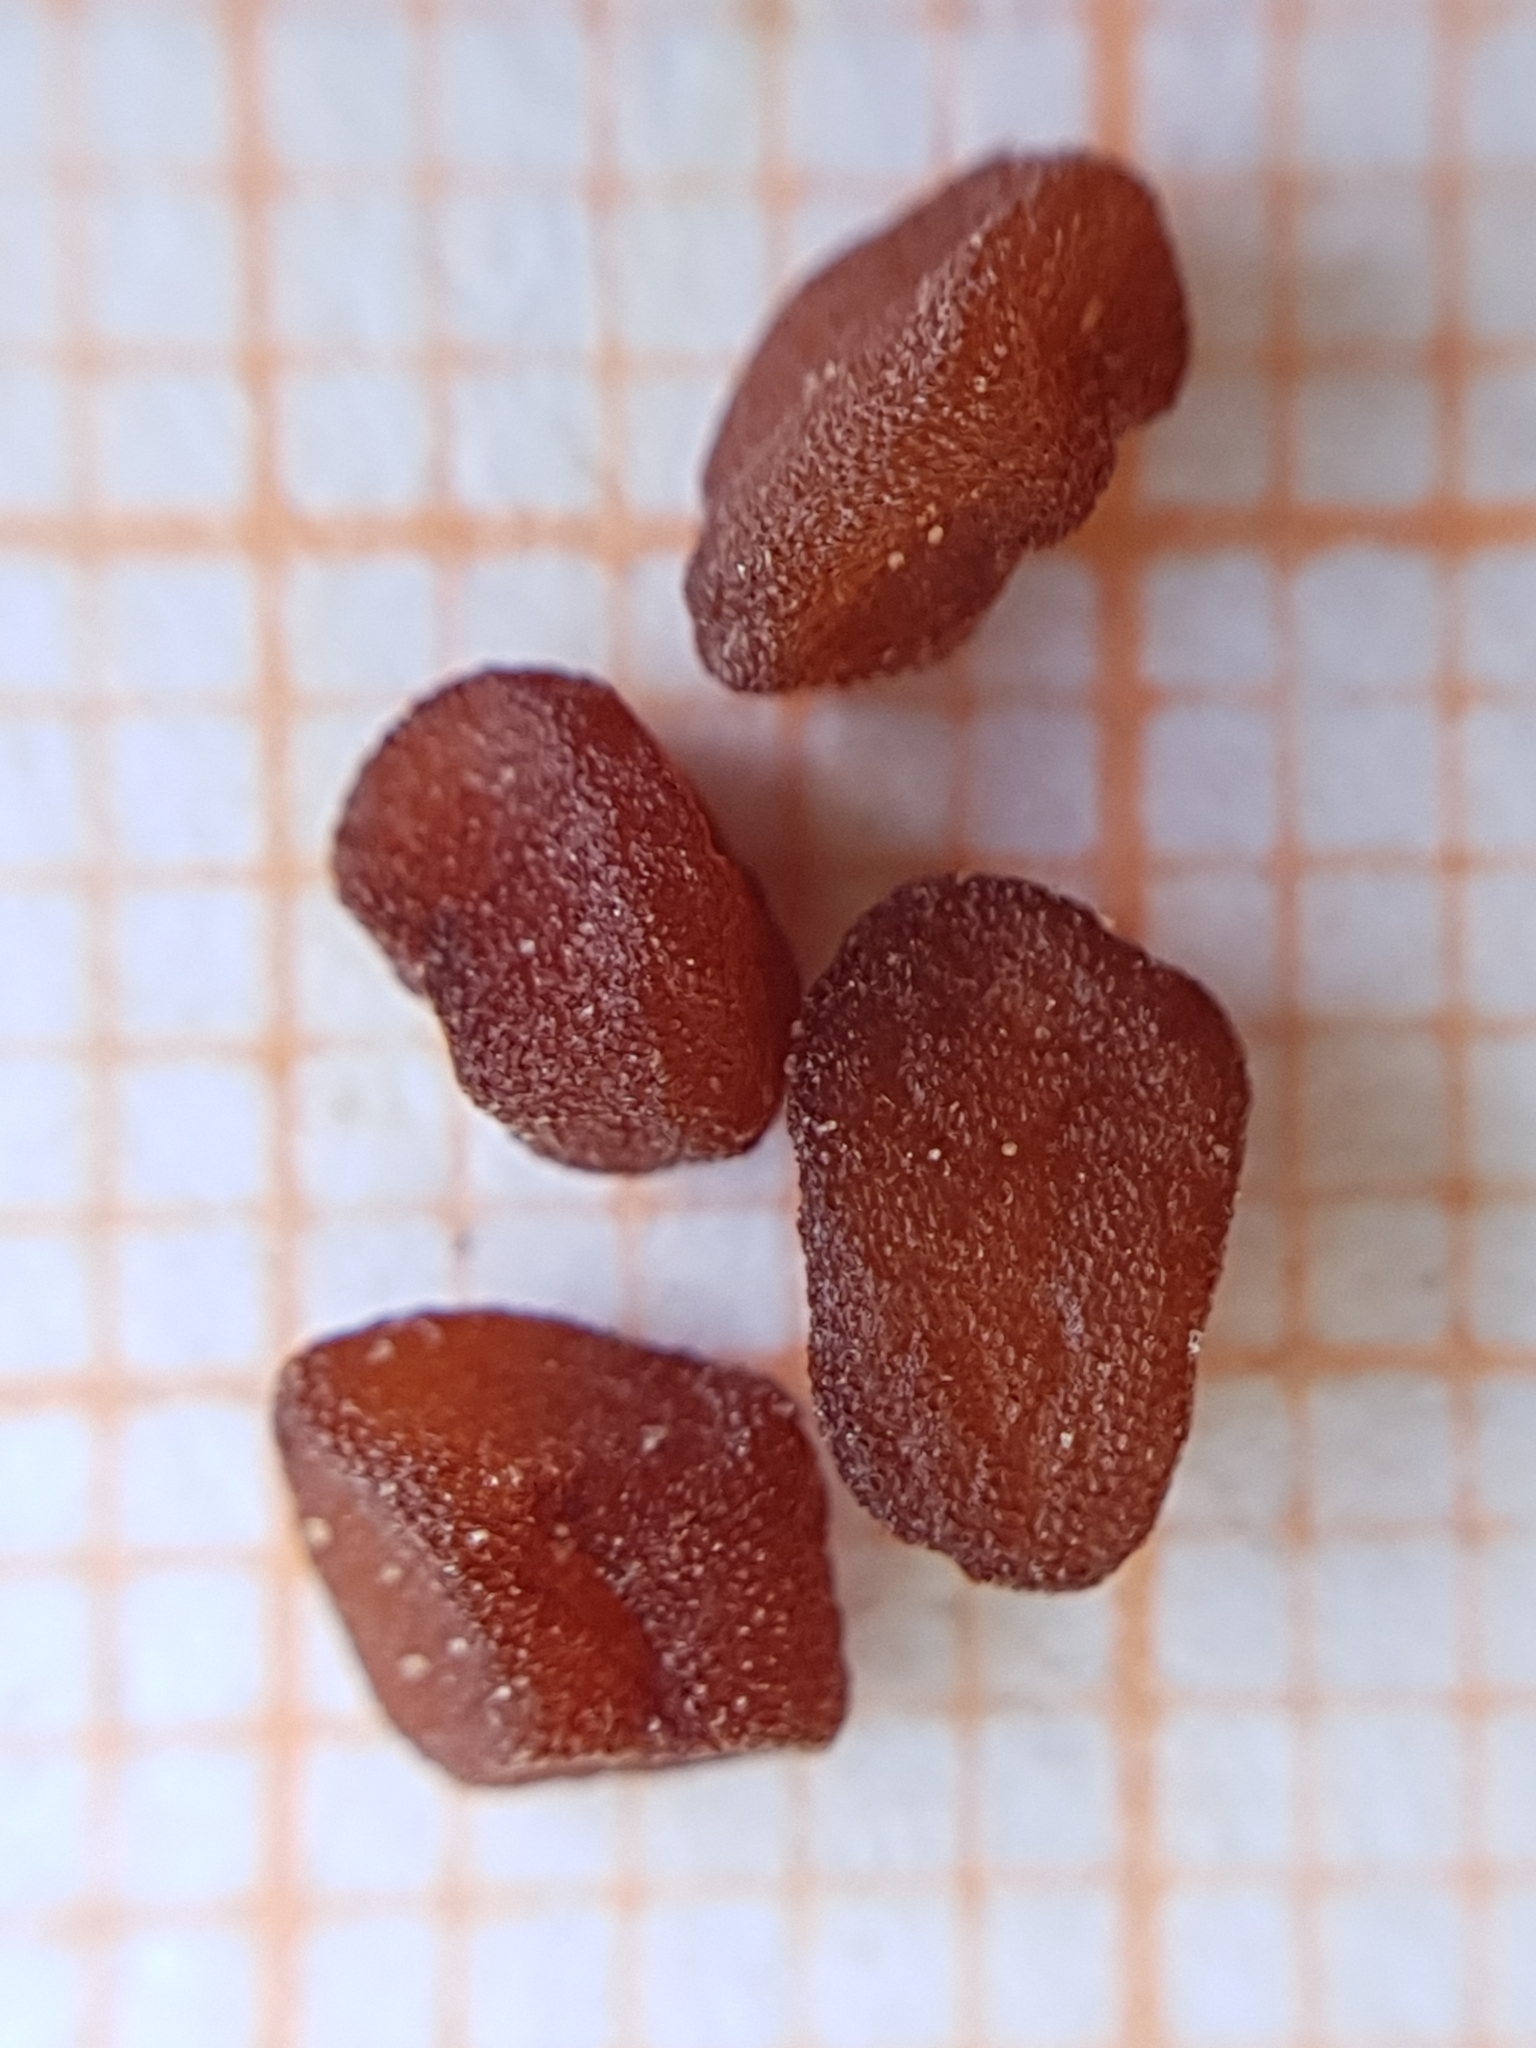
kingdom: Plantae
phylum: Tracheophyta
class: Magnoliopsida
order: Ericales
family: Primulaceae
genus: Cyclamen
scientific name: Cyclamen africanum
